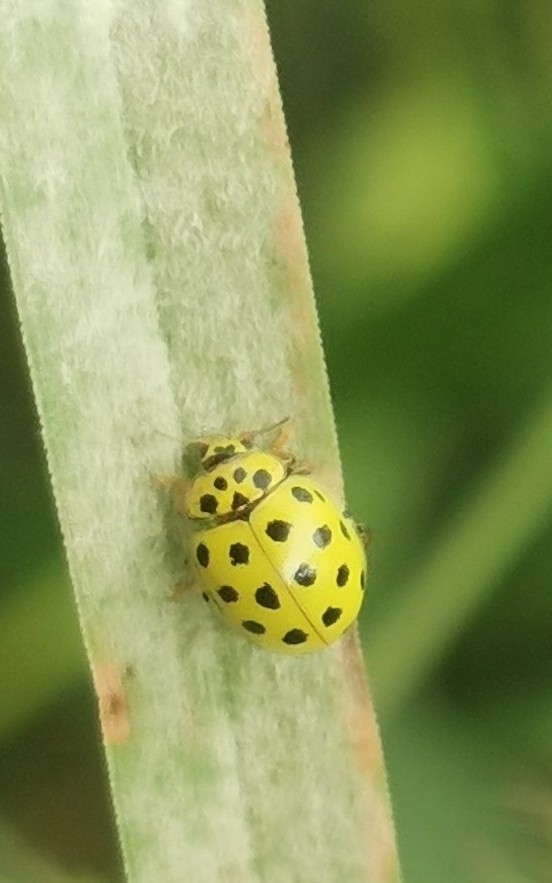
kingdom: Animalia
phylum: Arthropoda
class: Insecta
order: Coleoptera
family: Coccinellidae
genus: Psyllobora
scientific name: Psyllobora vigintiduopunctata
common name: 22-spot ladybird
